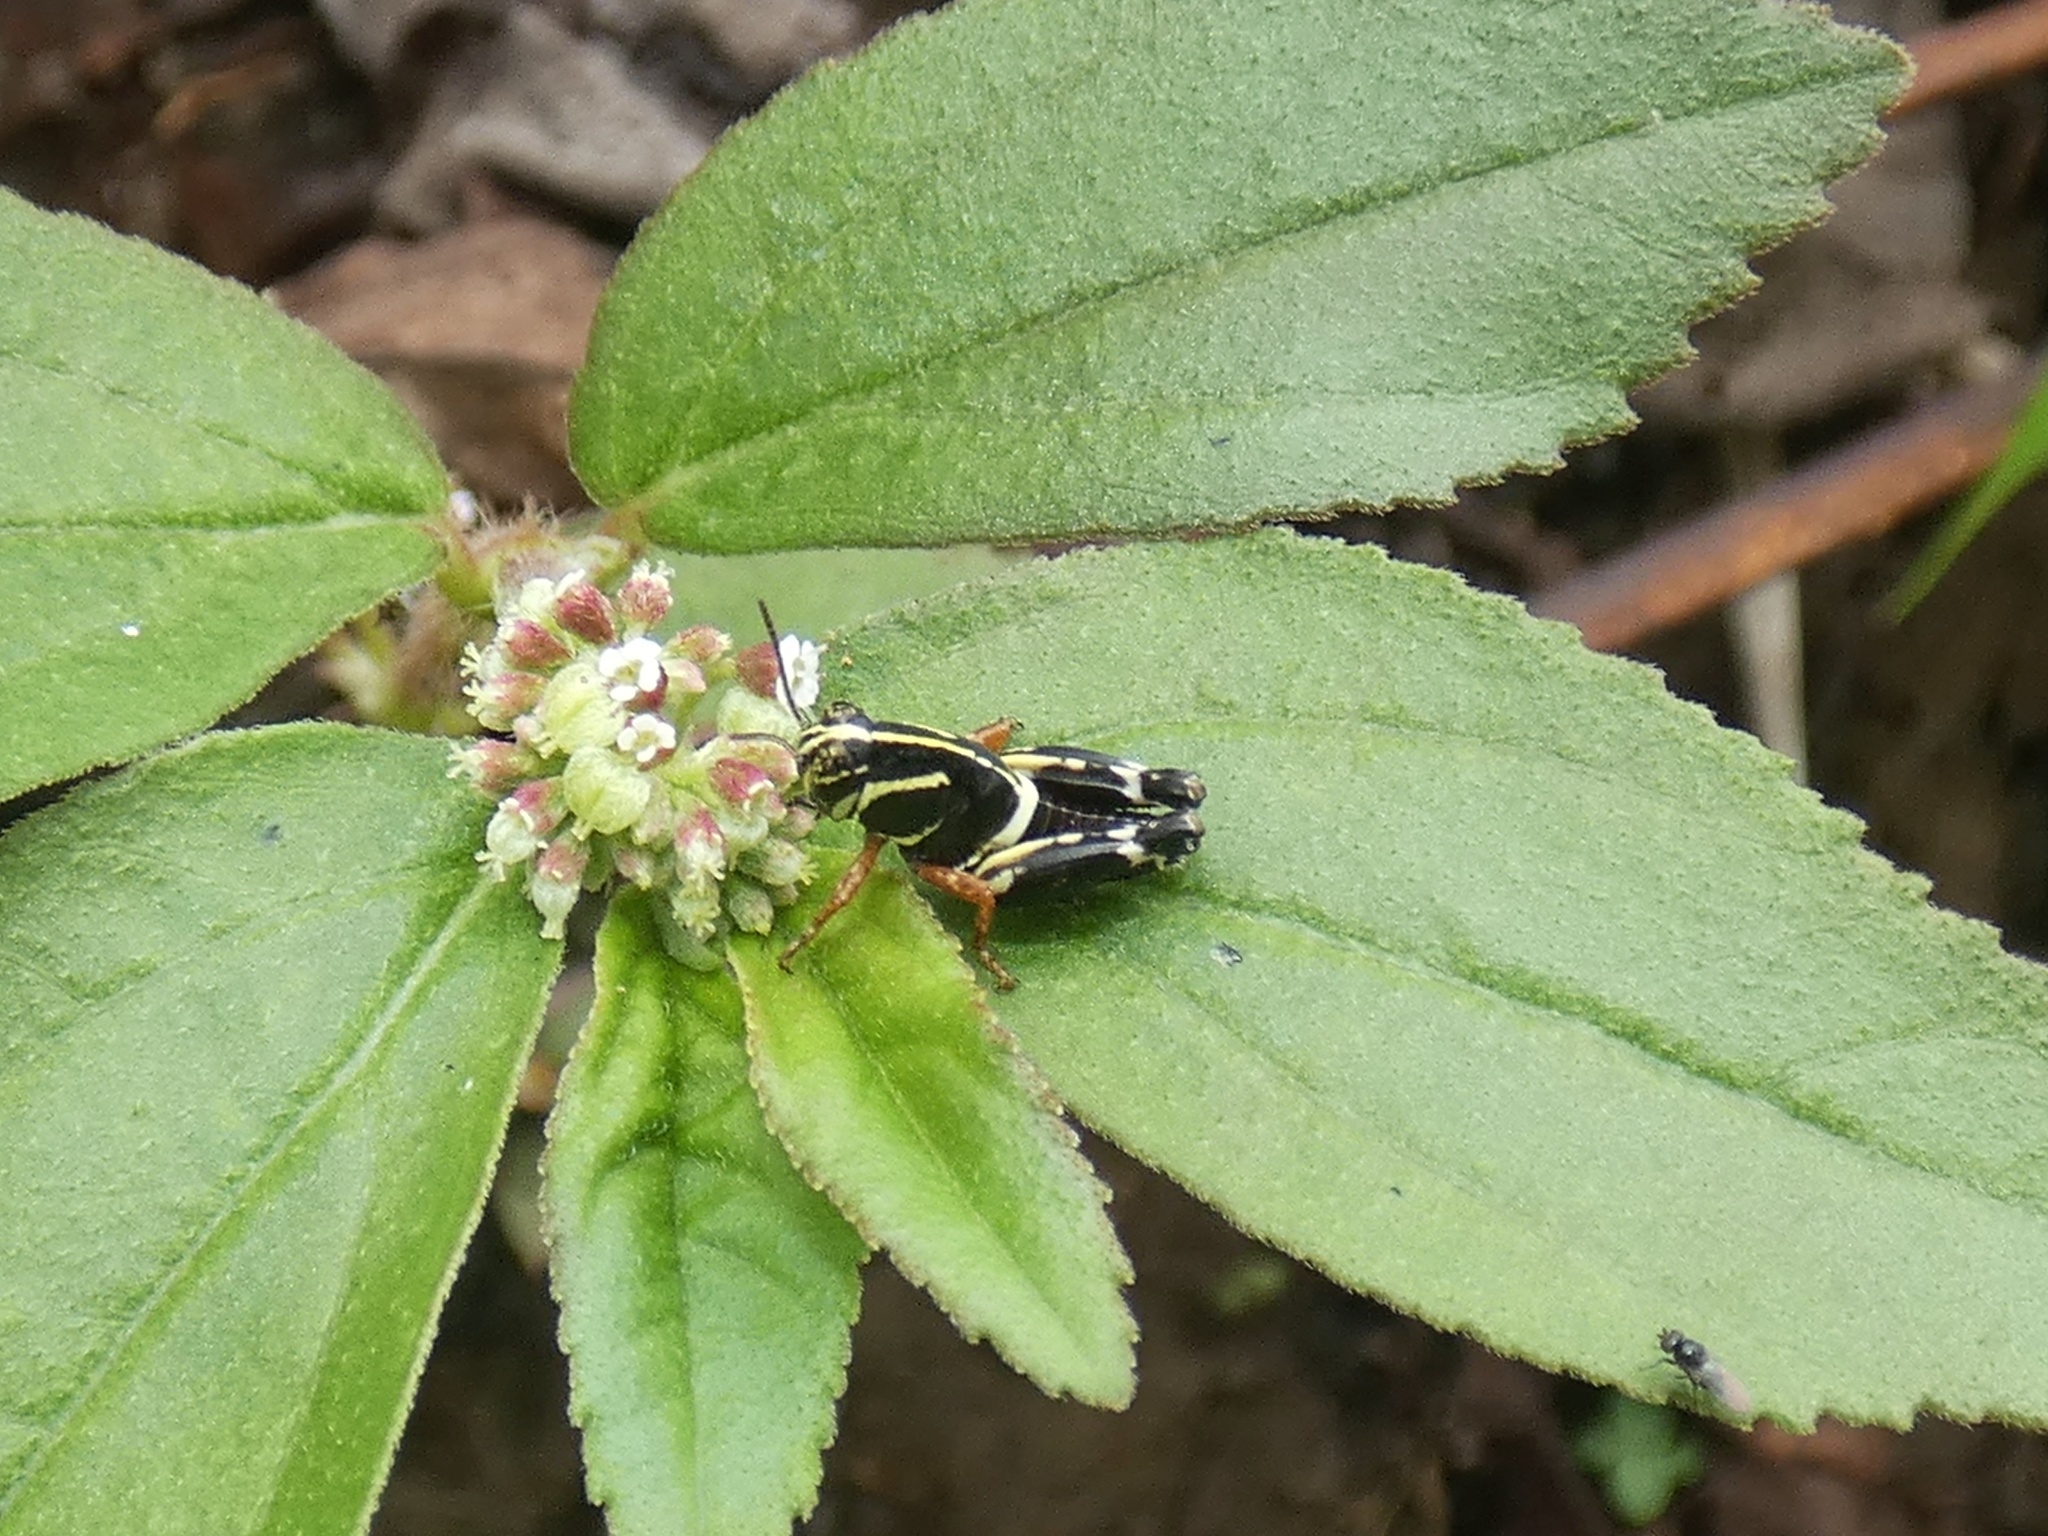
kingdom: Animalia
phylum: Arthropoda
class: Insecta
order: Orthoptera
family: Acrididae
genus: Aidemona
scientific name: Aidemona azteca
